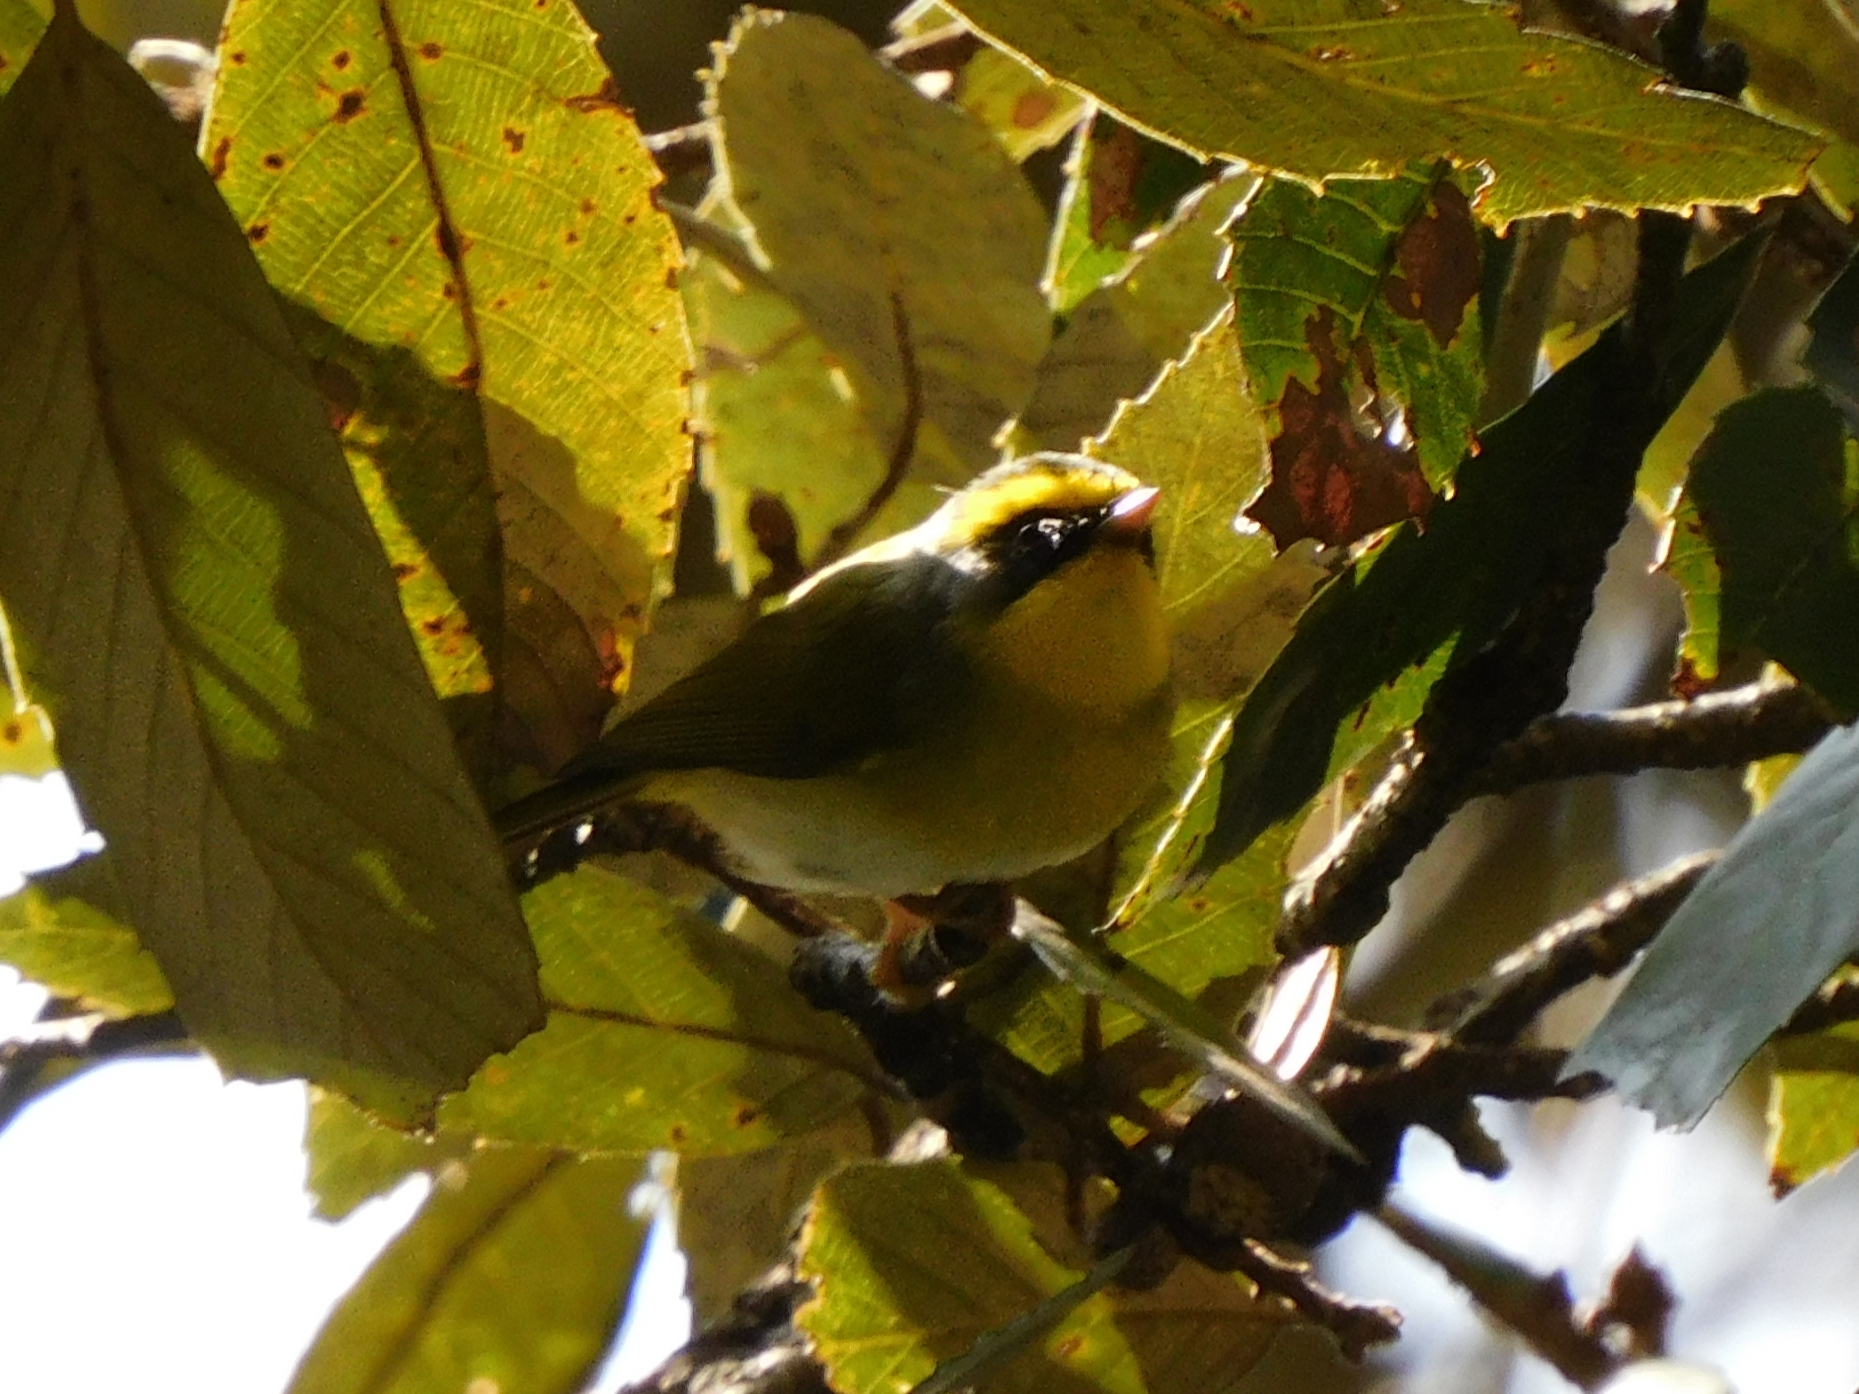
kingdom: Animalia
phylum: Chordata
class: Aves
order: Passeriformes
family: Cettiidae
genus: Abroscopus
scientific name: Abroscopus schisticeps
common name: Black-faced warbler
